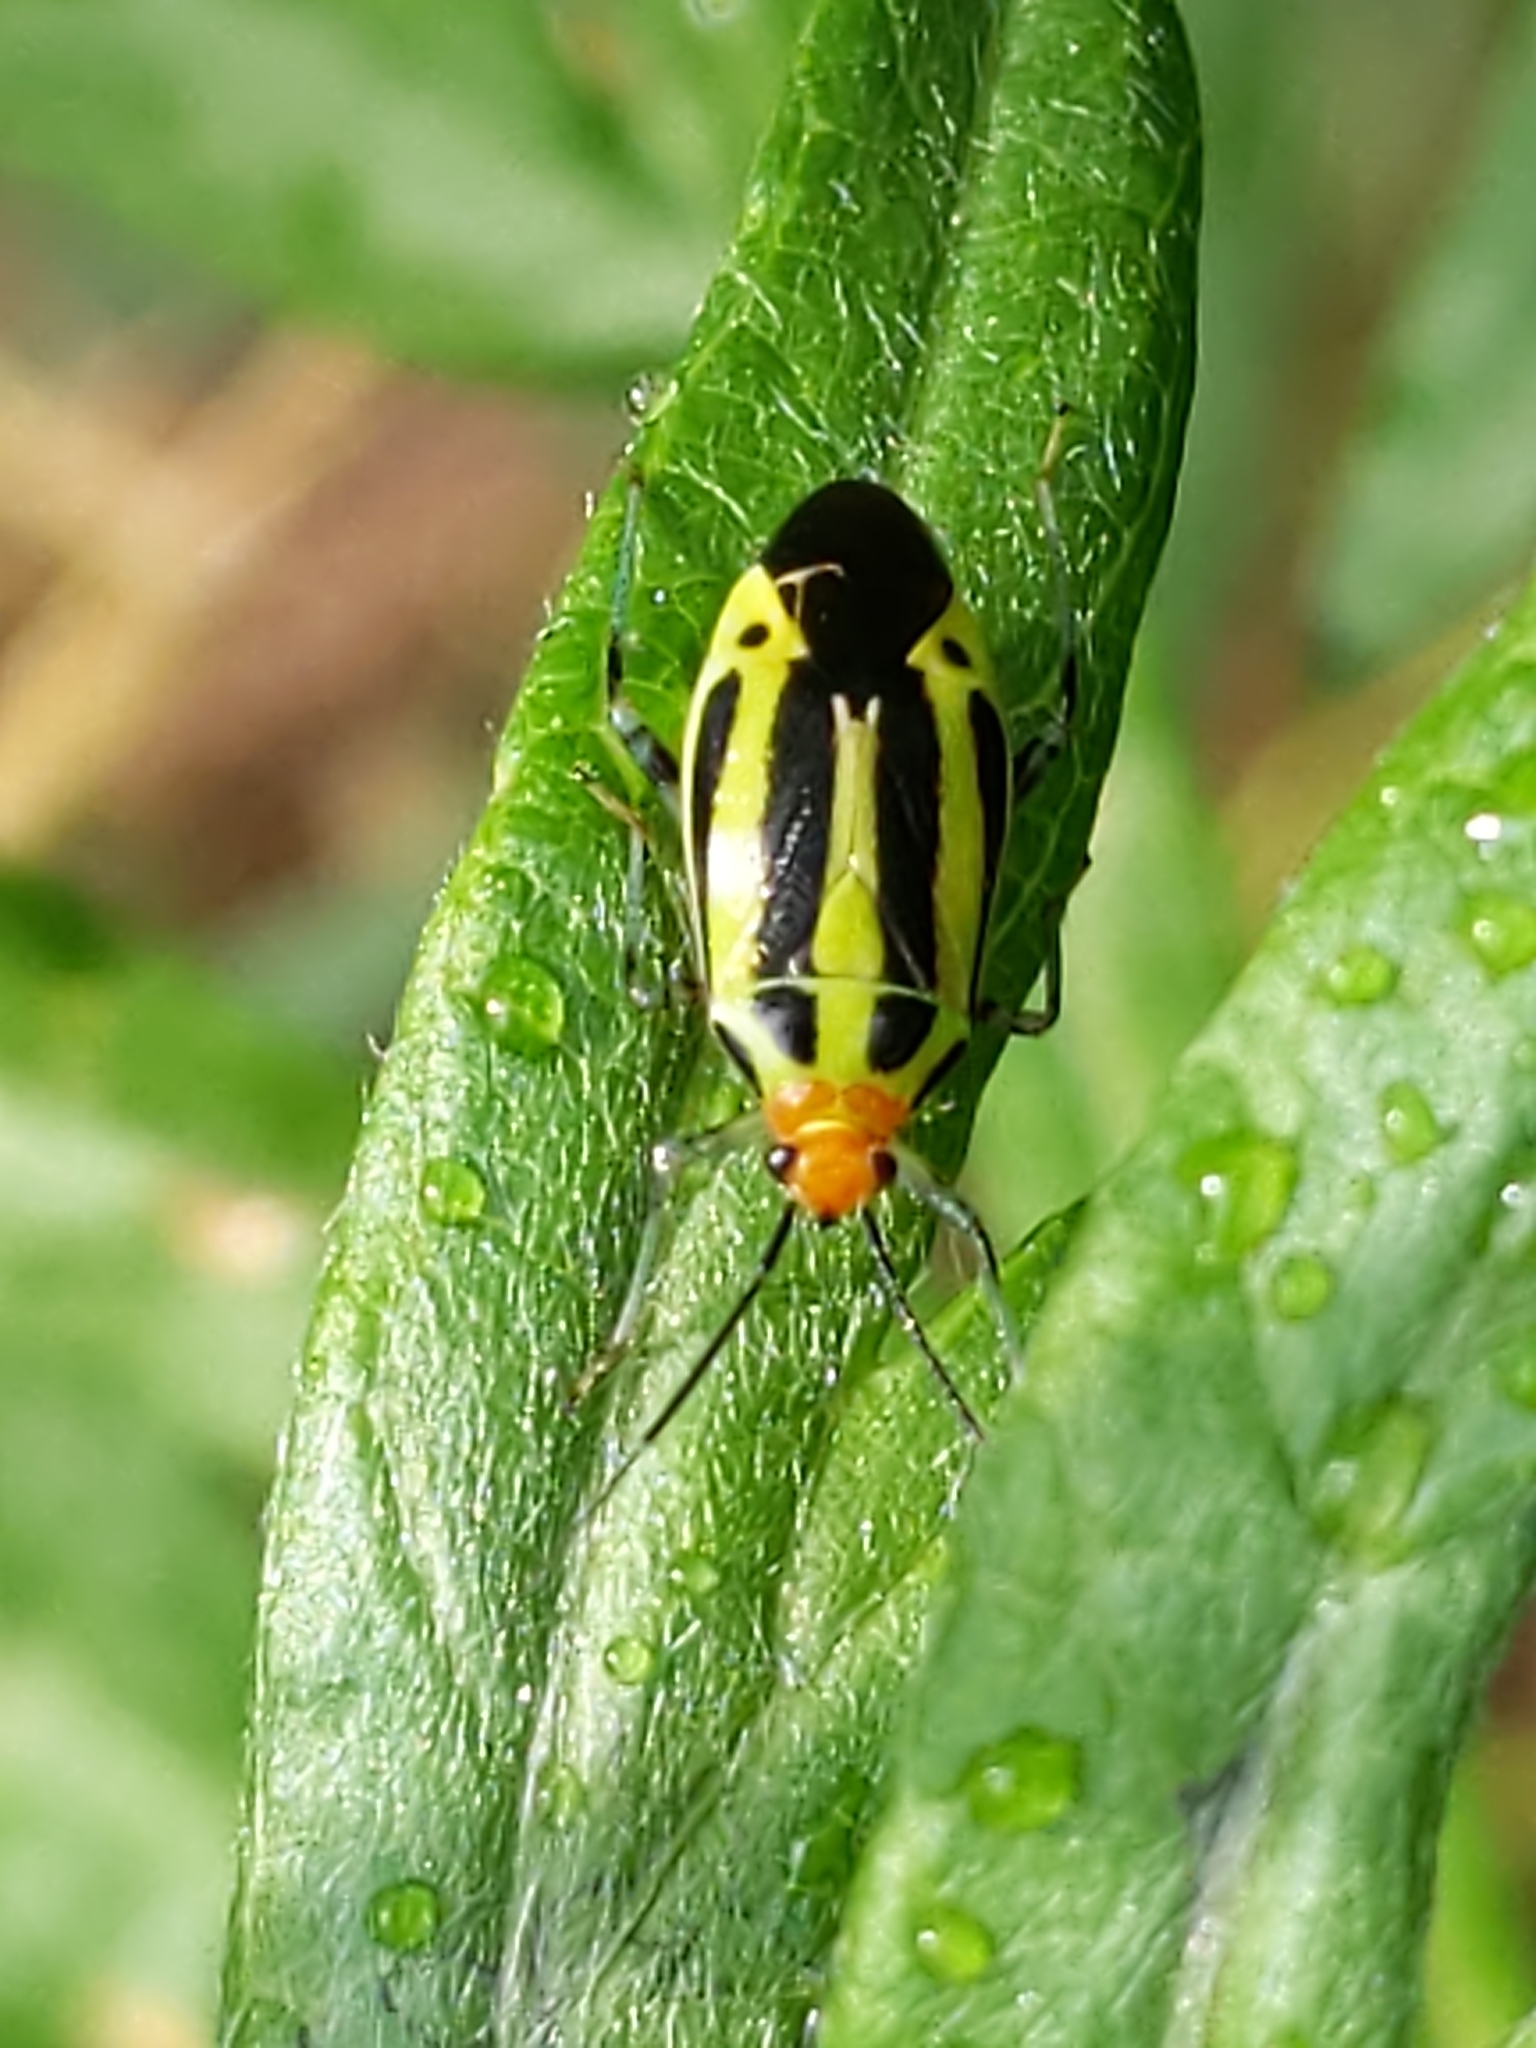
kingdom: Animalia
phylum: Arthropoda
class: Insecta
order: Hemiptera
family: Miridae
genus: Poecilocapsus
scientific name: Poecilocapsus lineatus
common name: Four-lined plant bug
